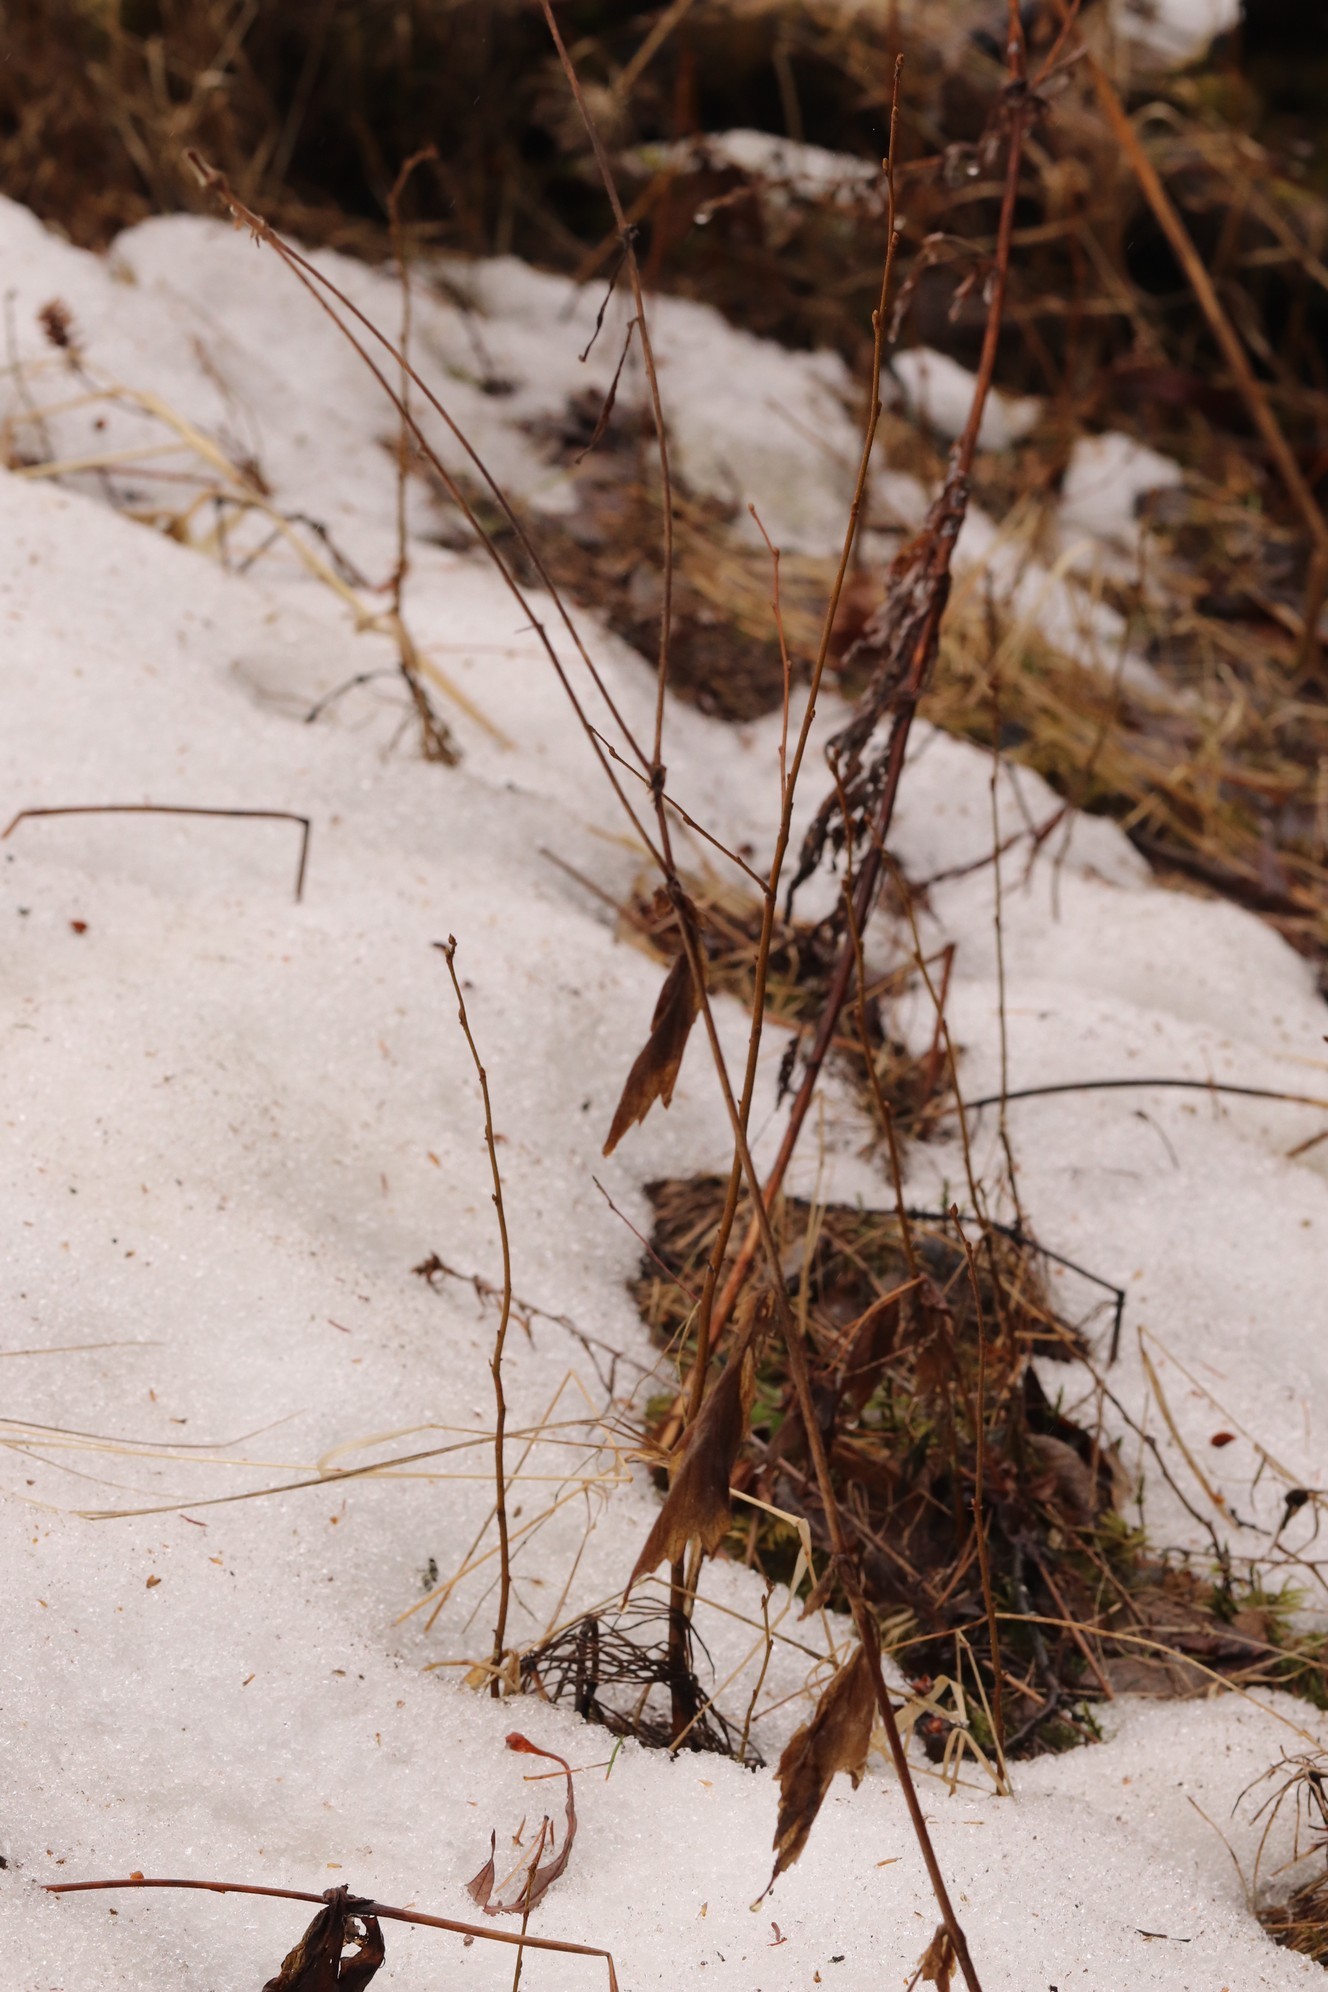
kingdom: Plantae
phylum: Tracheophyta
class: Magnoliopsida
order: Rosales
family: Rosaceae
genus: Geum
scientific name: Geum aleppicum
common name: Yellow avens
